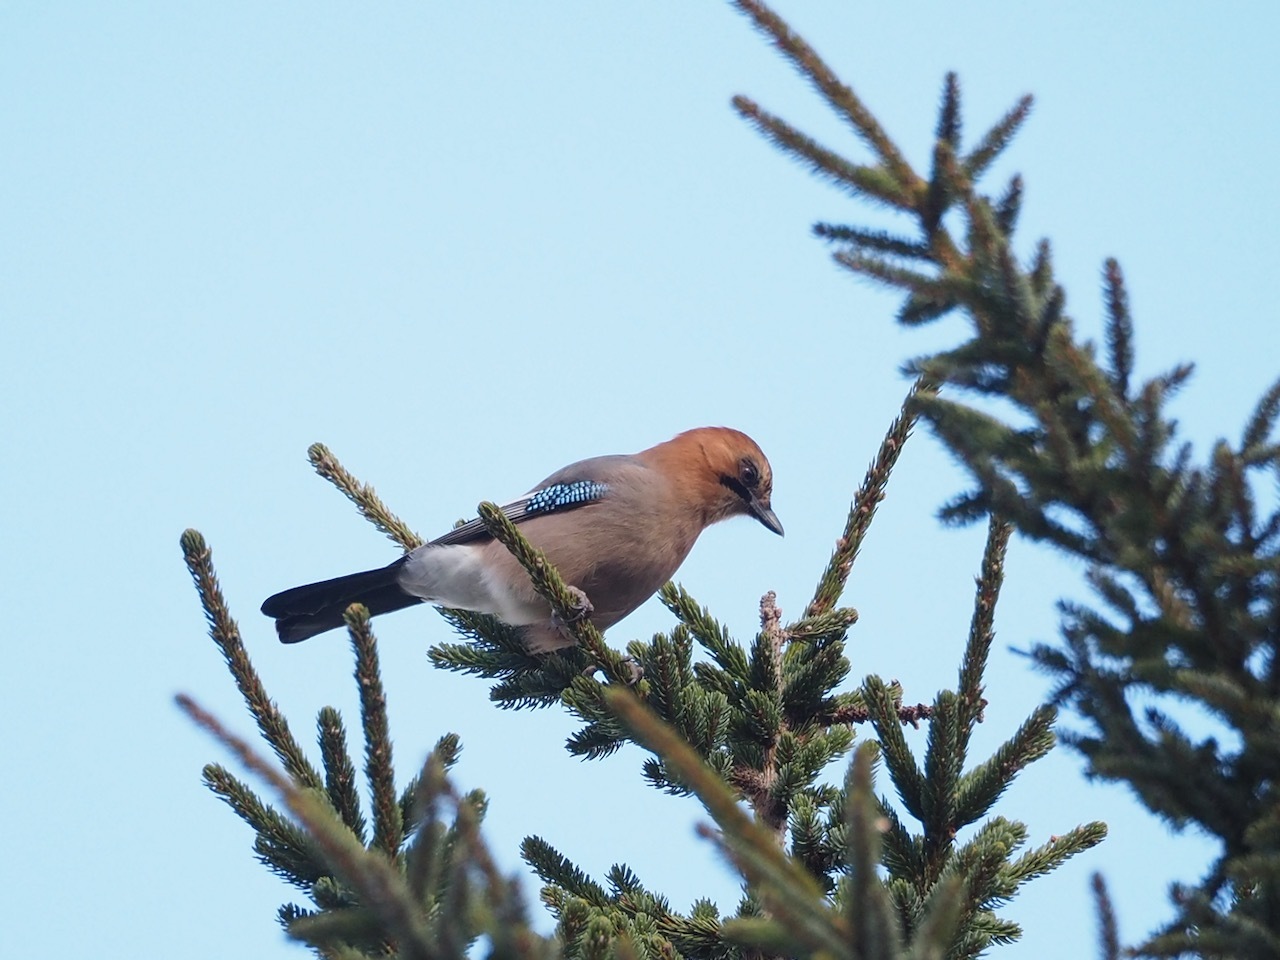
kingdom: Animalia
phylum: Chordata
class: Aves
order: Passeriformes
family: Corvidae
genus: Garrulus
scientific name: Garrulus glandarius
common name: Eurasian jay
